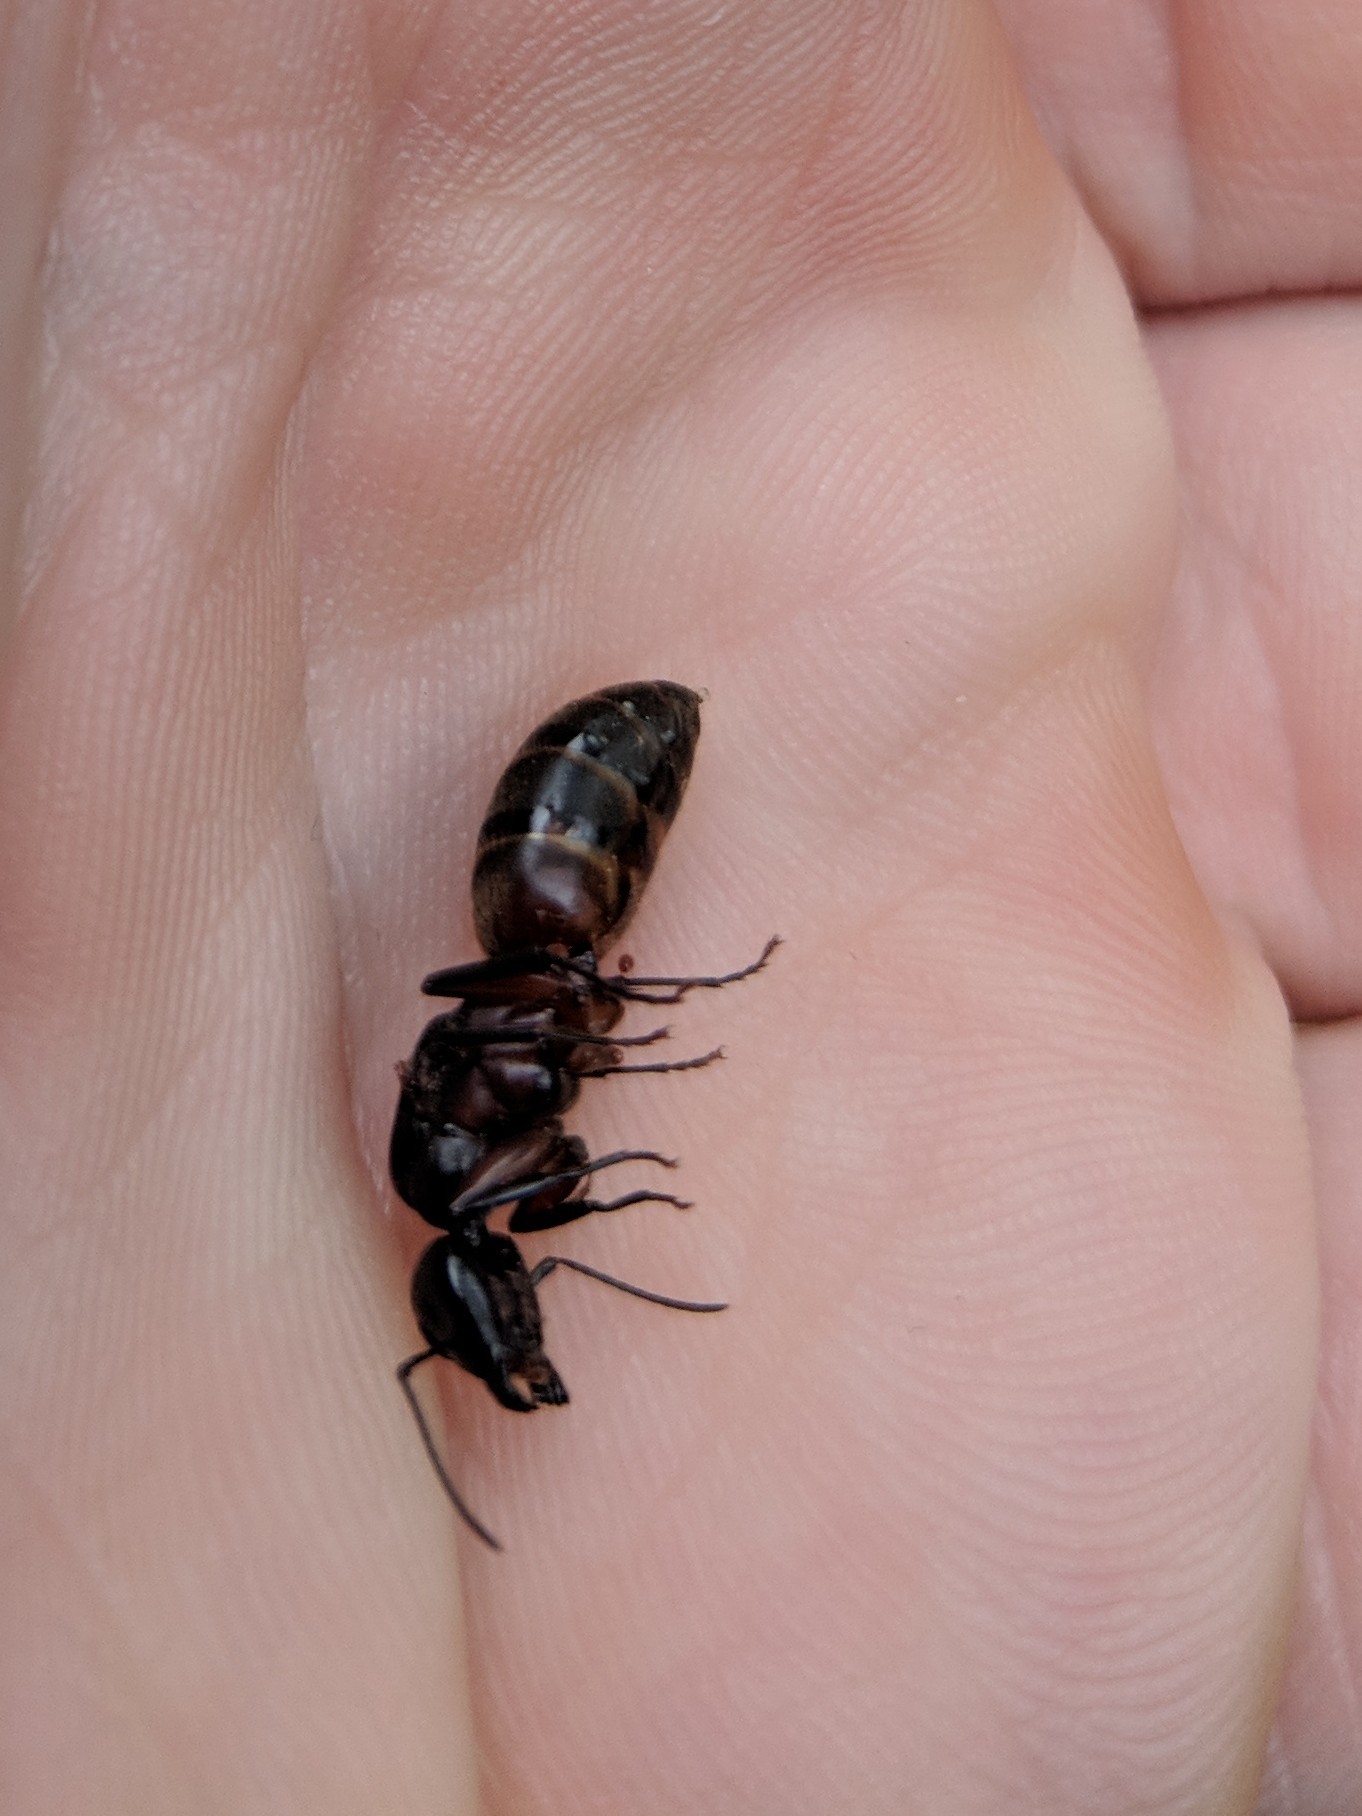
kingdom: Animalia
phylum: Arthropoda
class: Insecta
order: Hymenoptera
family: Formicidae
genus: Camponotus
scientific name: Camponotus chromaiodes
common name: Red carpenter ant
